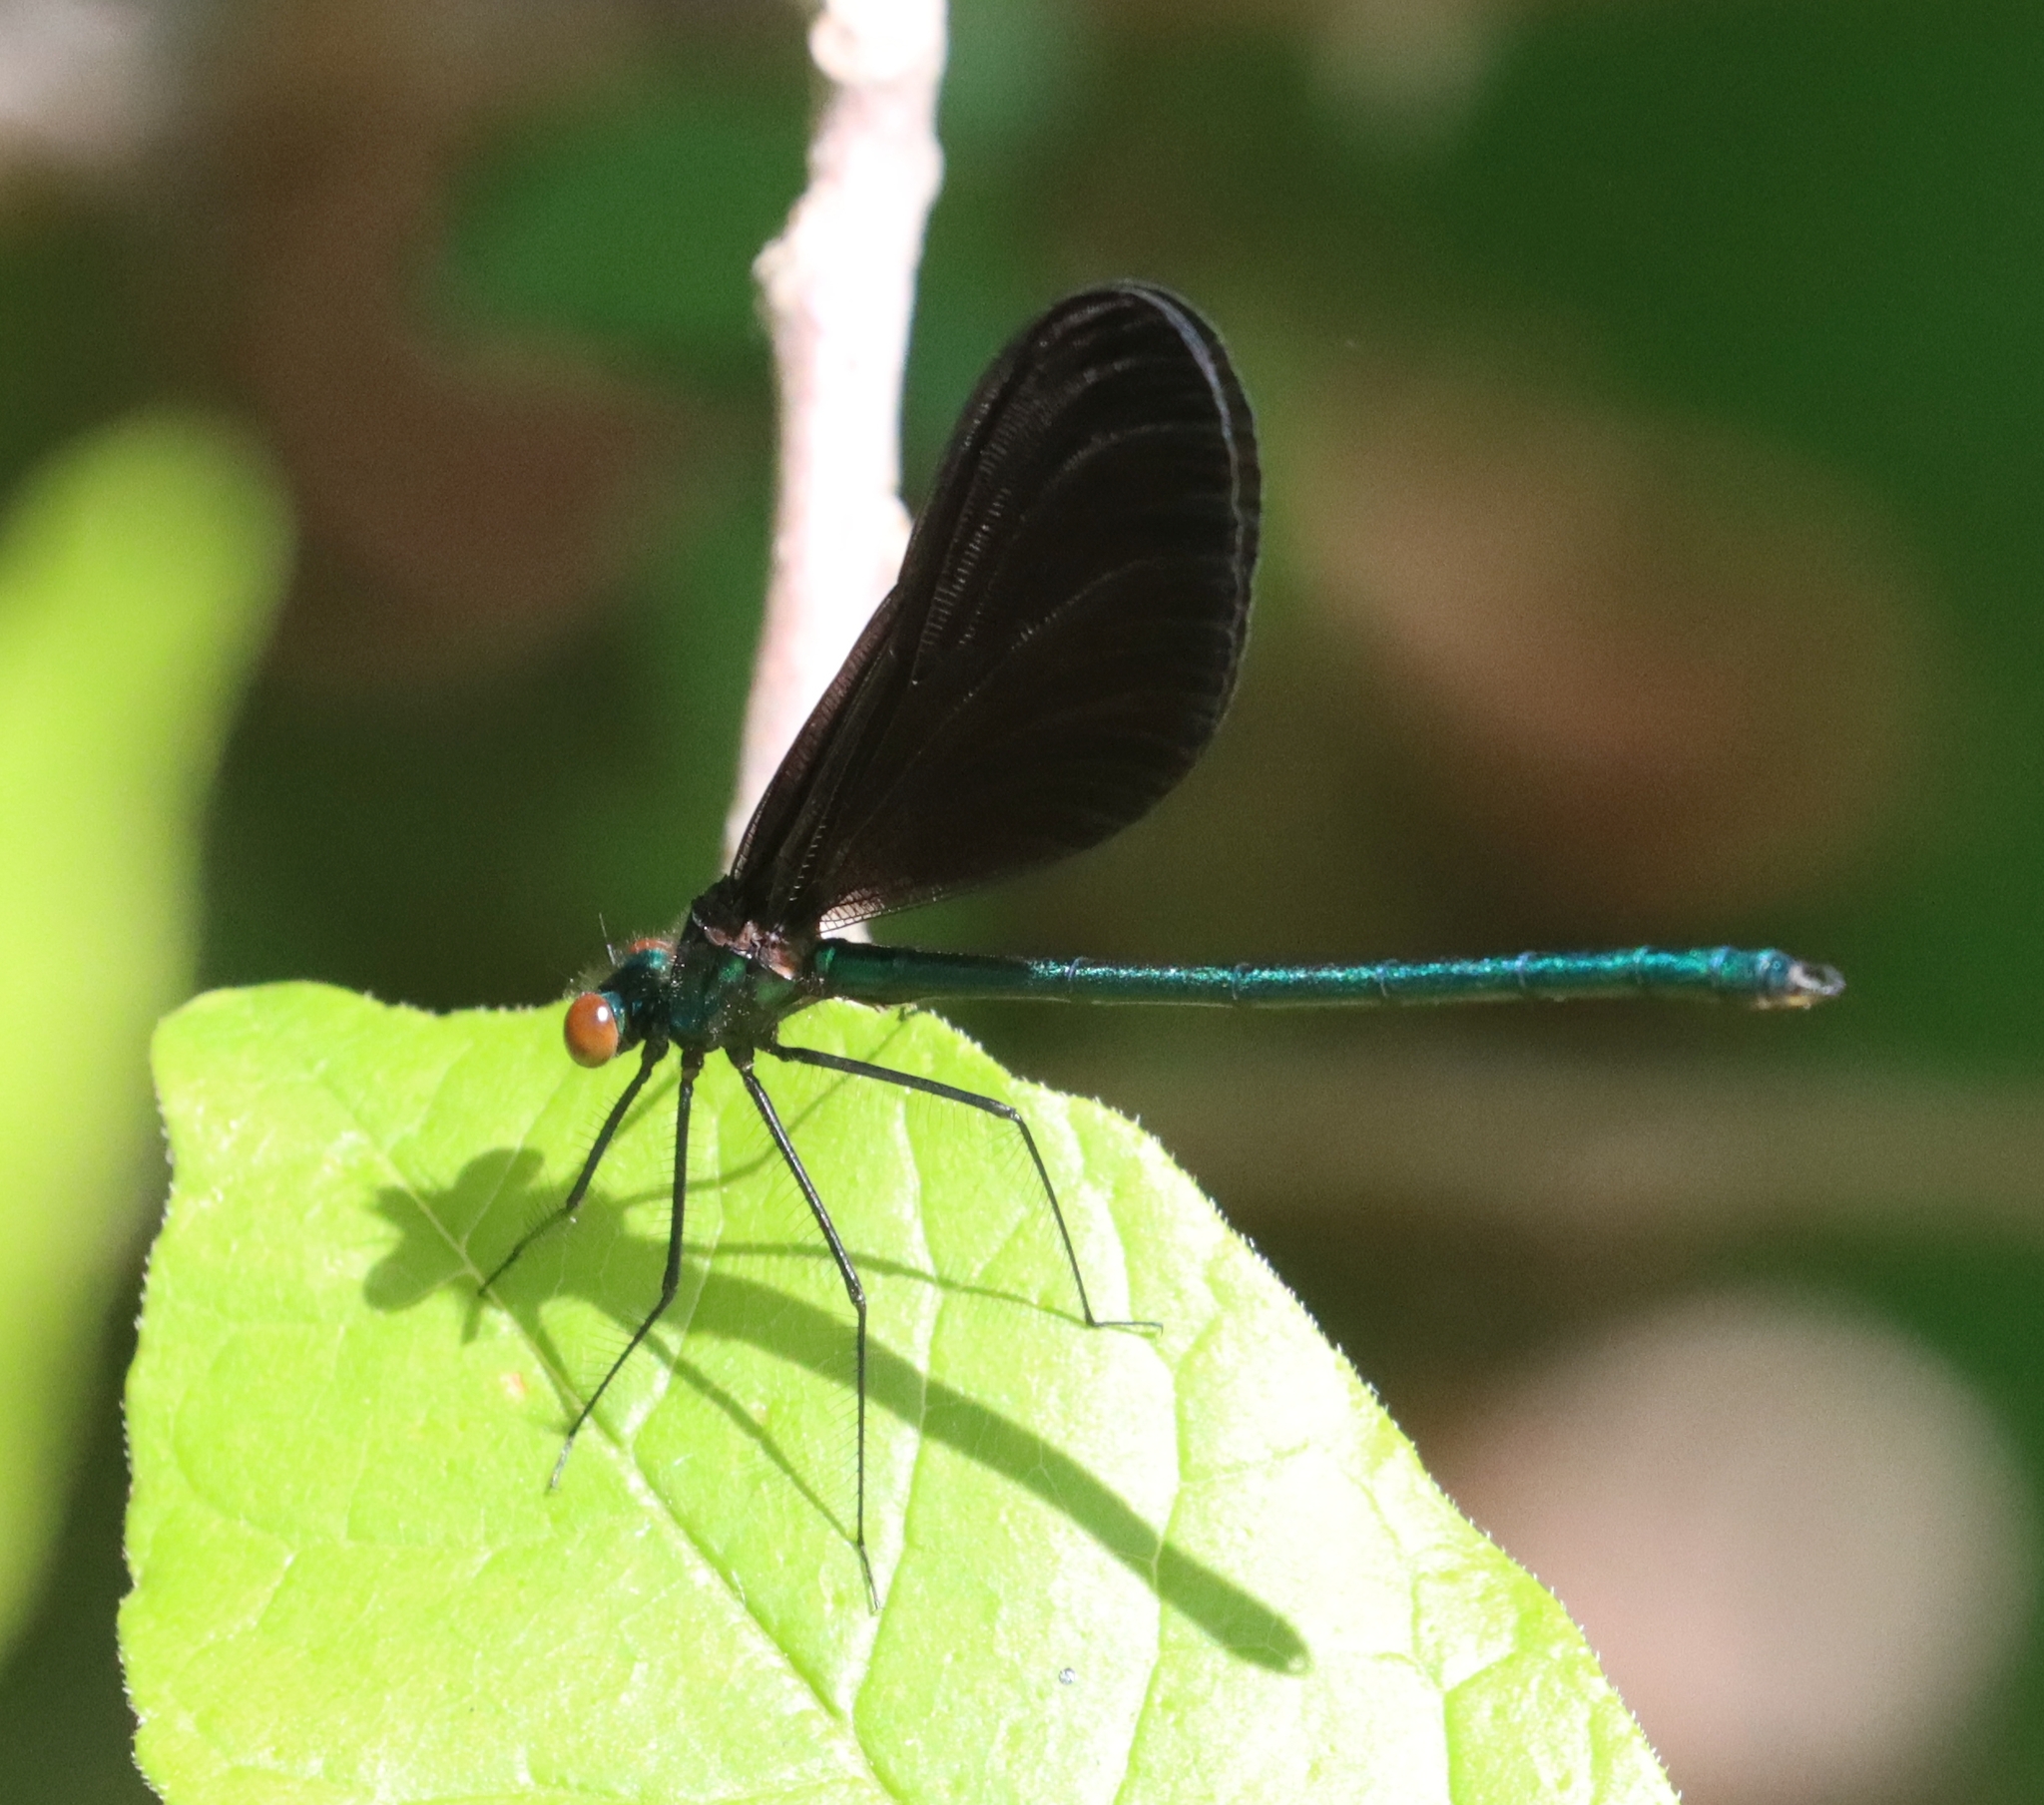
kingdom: Animalia
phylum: Arthropoda
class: Insecta
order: Odonata
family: Calopterygidae
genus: Calopteryx
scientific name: Calopteryx maculata
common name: Ebony jewelwing
